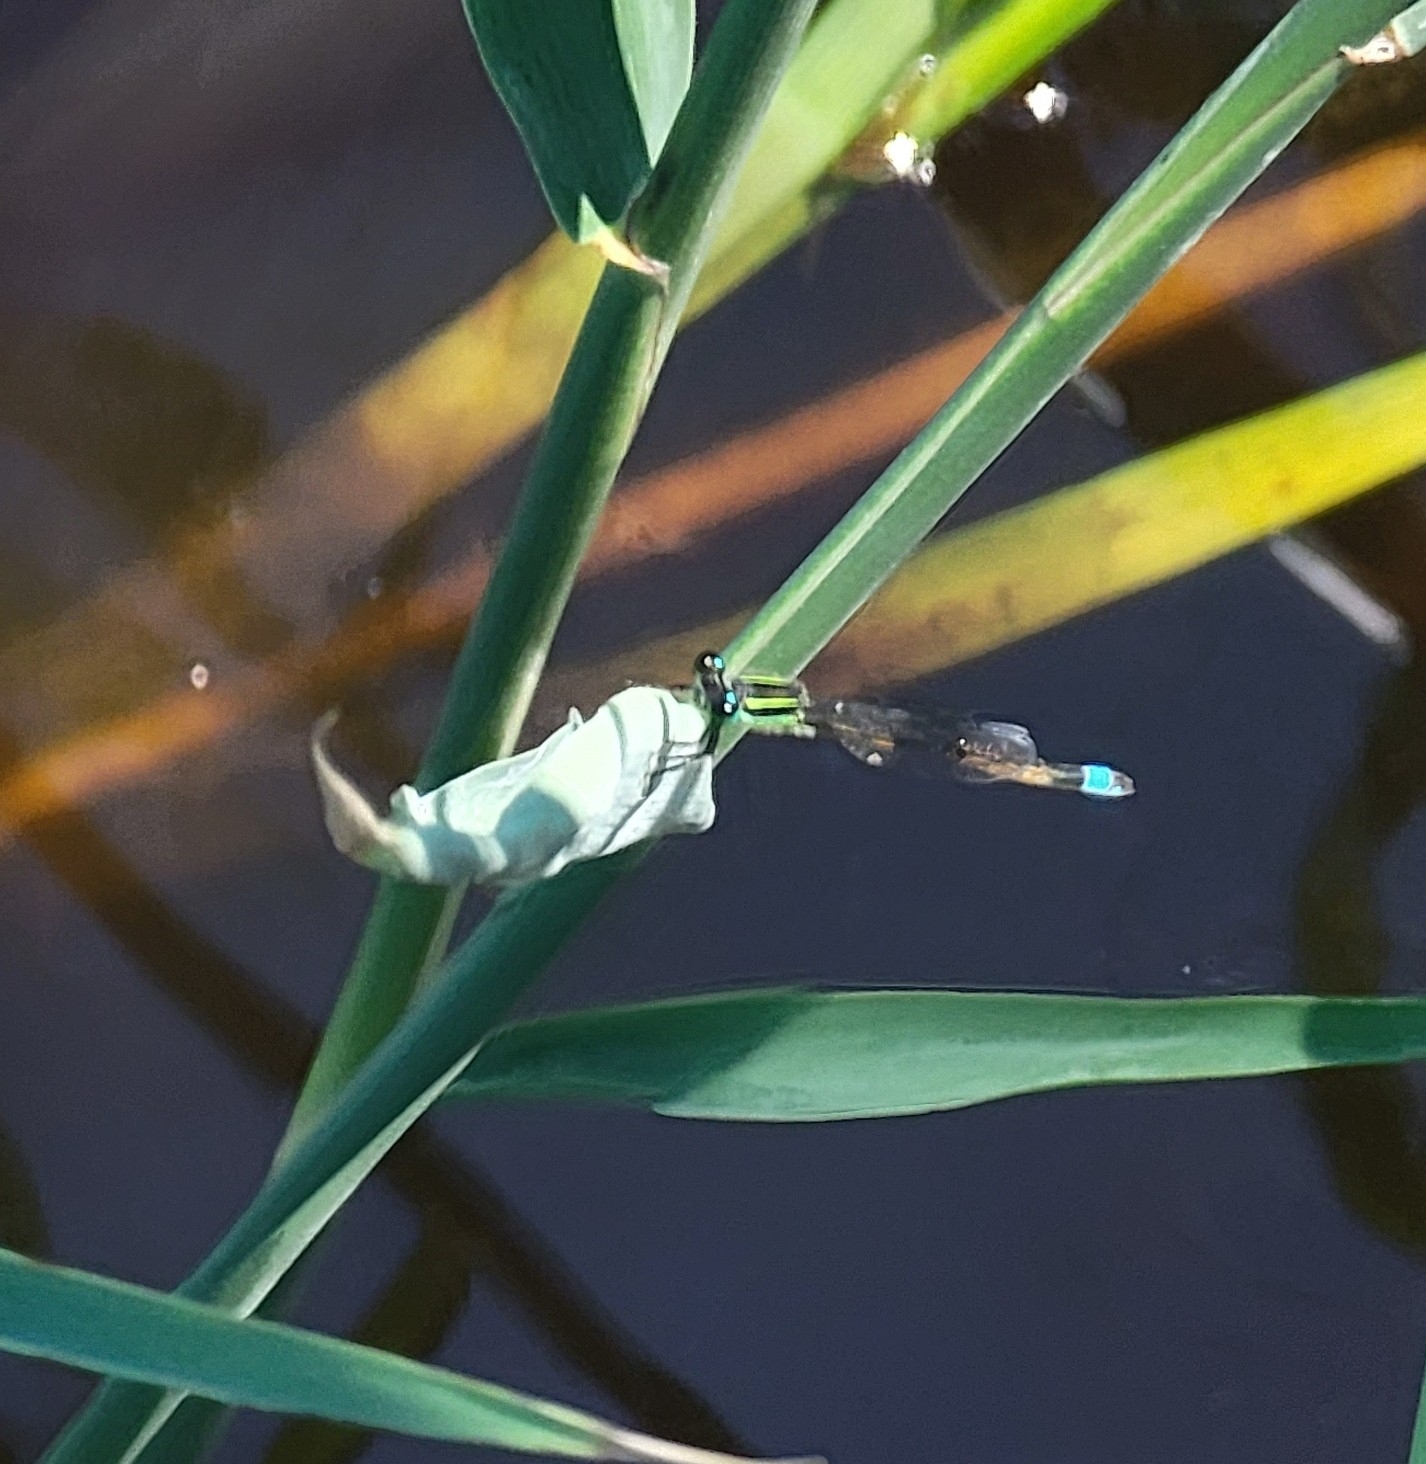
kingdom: Animalia
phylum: Arthropoda
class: Insecta
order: Odonata
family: Coenagrionidae
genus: Ischnura
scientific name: Ischnura ramburii
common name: Rambur's forktail
